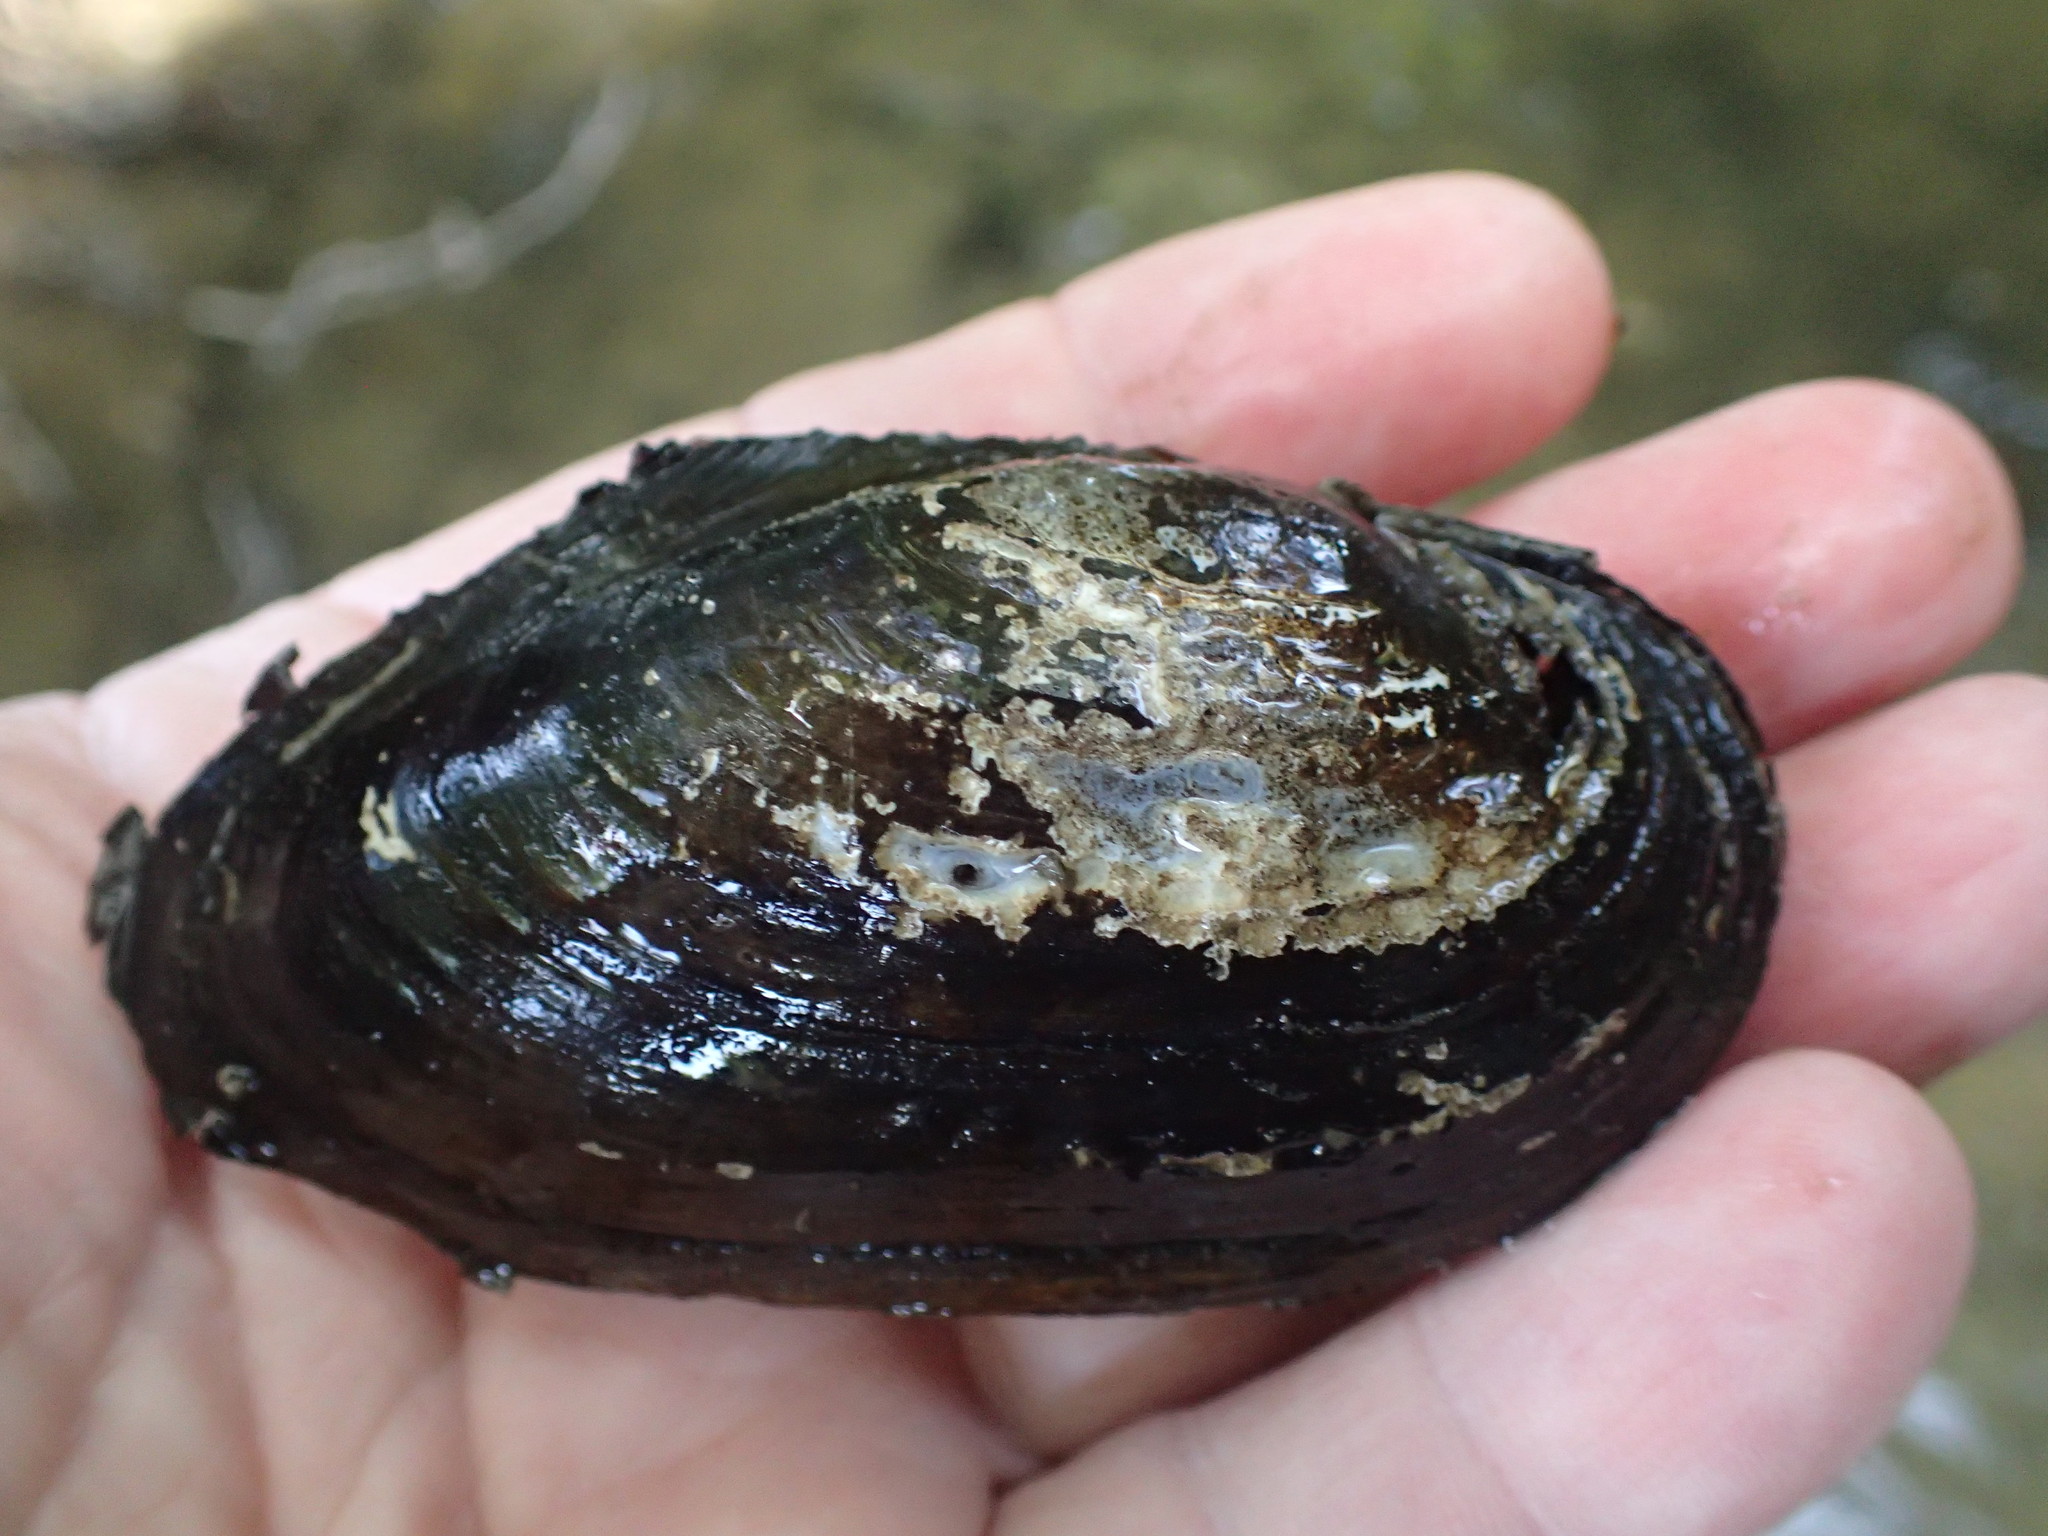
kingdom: Animalia
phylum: Mollusca
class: Bivalvia
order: Unionida
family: Unionidae
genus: Anodonta
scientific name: Anodonta anatina
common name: Duck mussel
